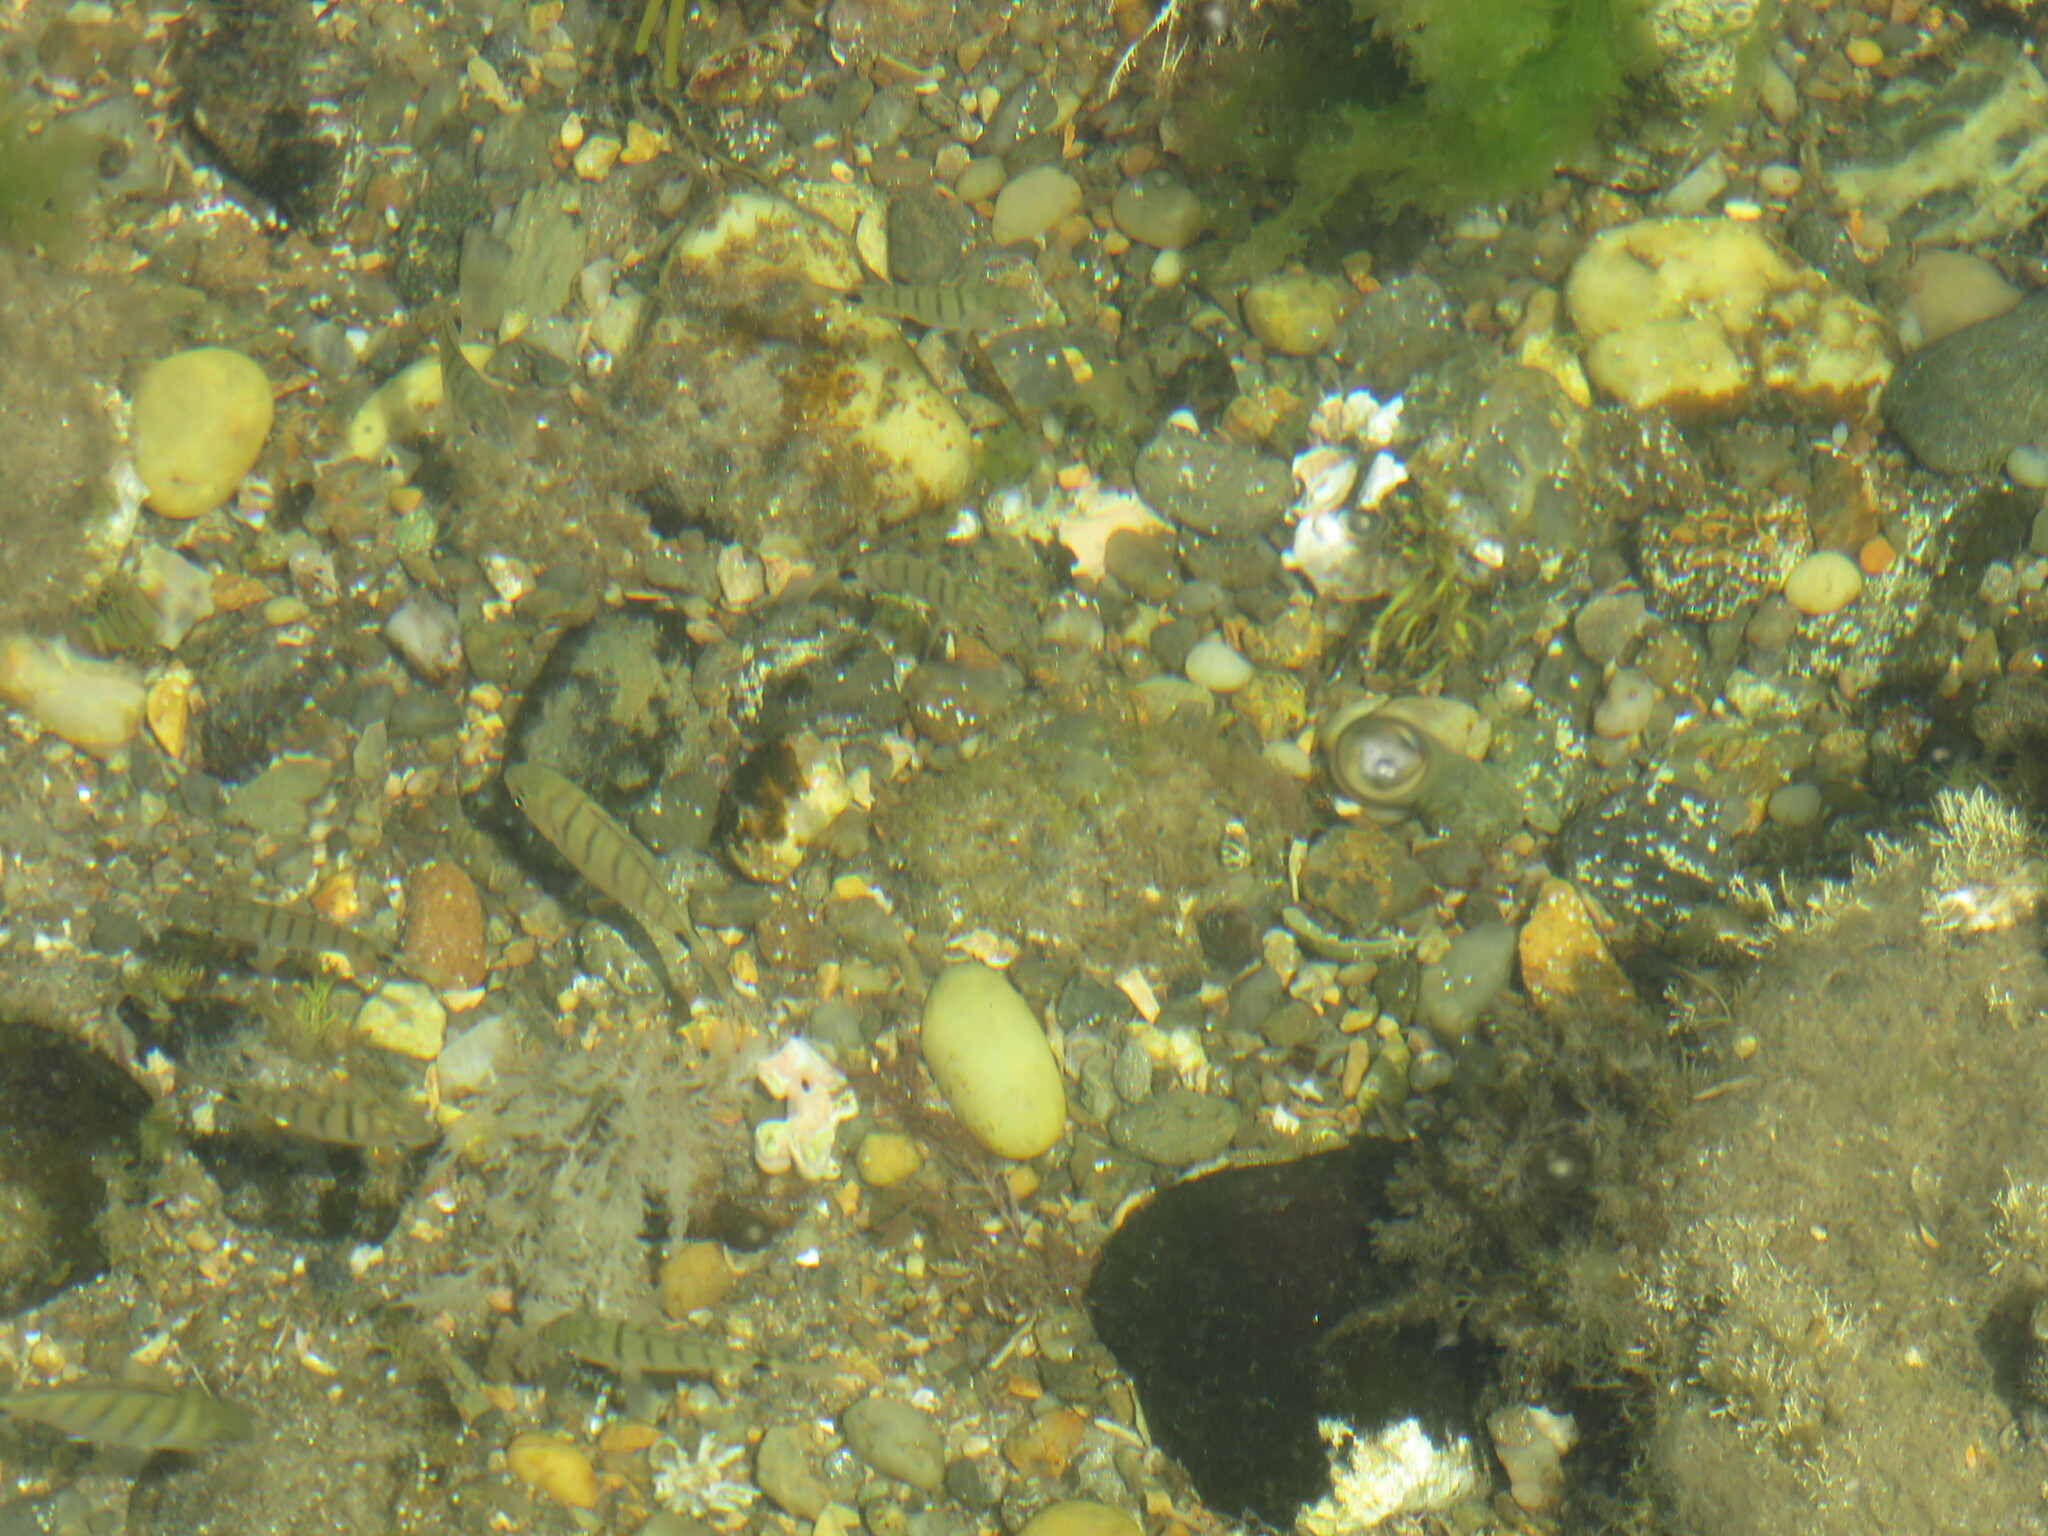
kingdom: Animalia
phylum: Chordata
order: Perciformes
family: Sparidae
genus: Diplodus
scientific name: Diplodus cadenati
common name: Moroccan white seabream
